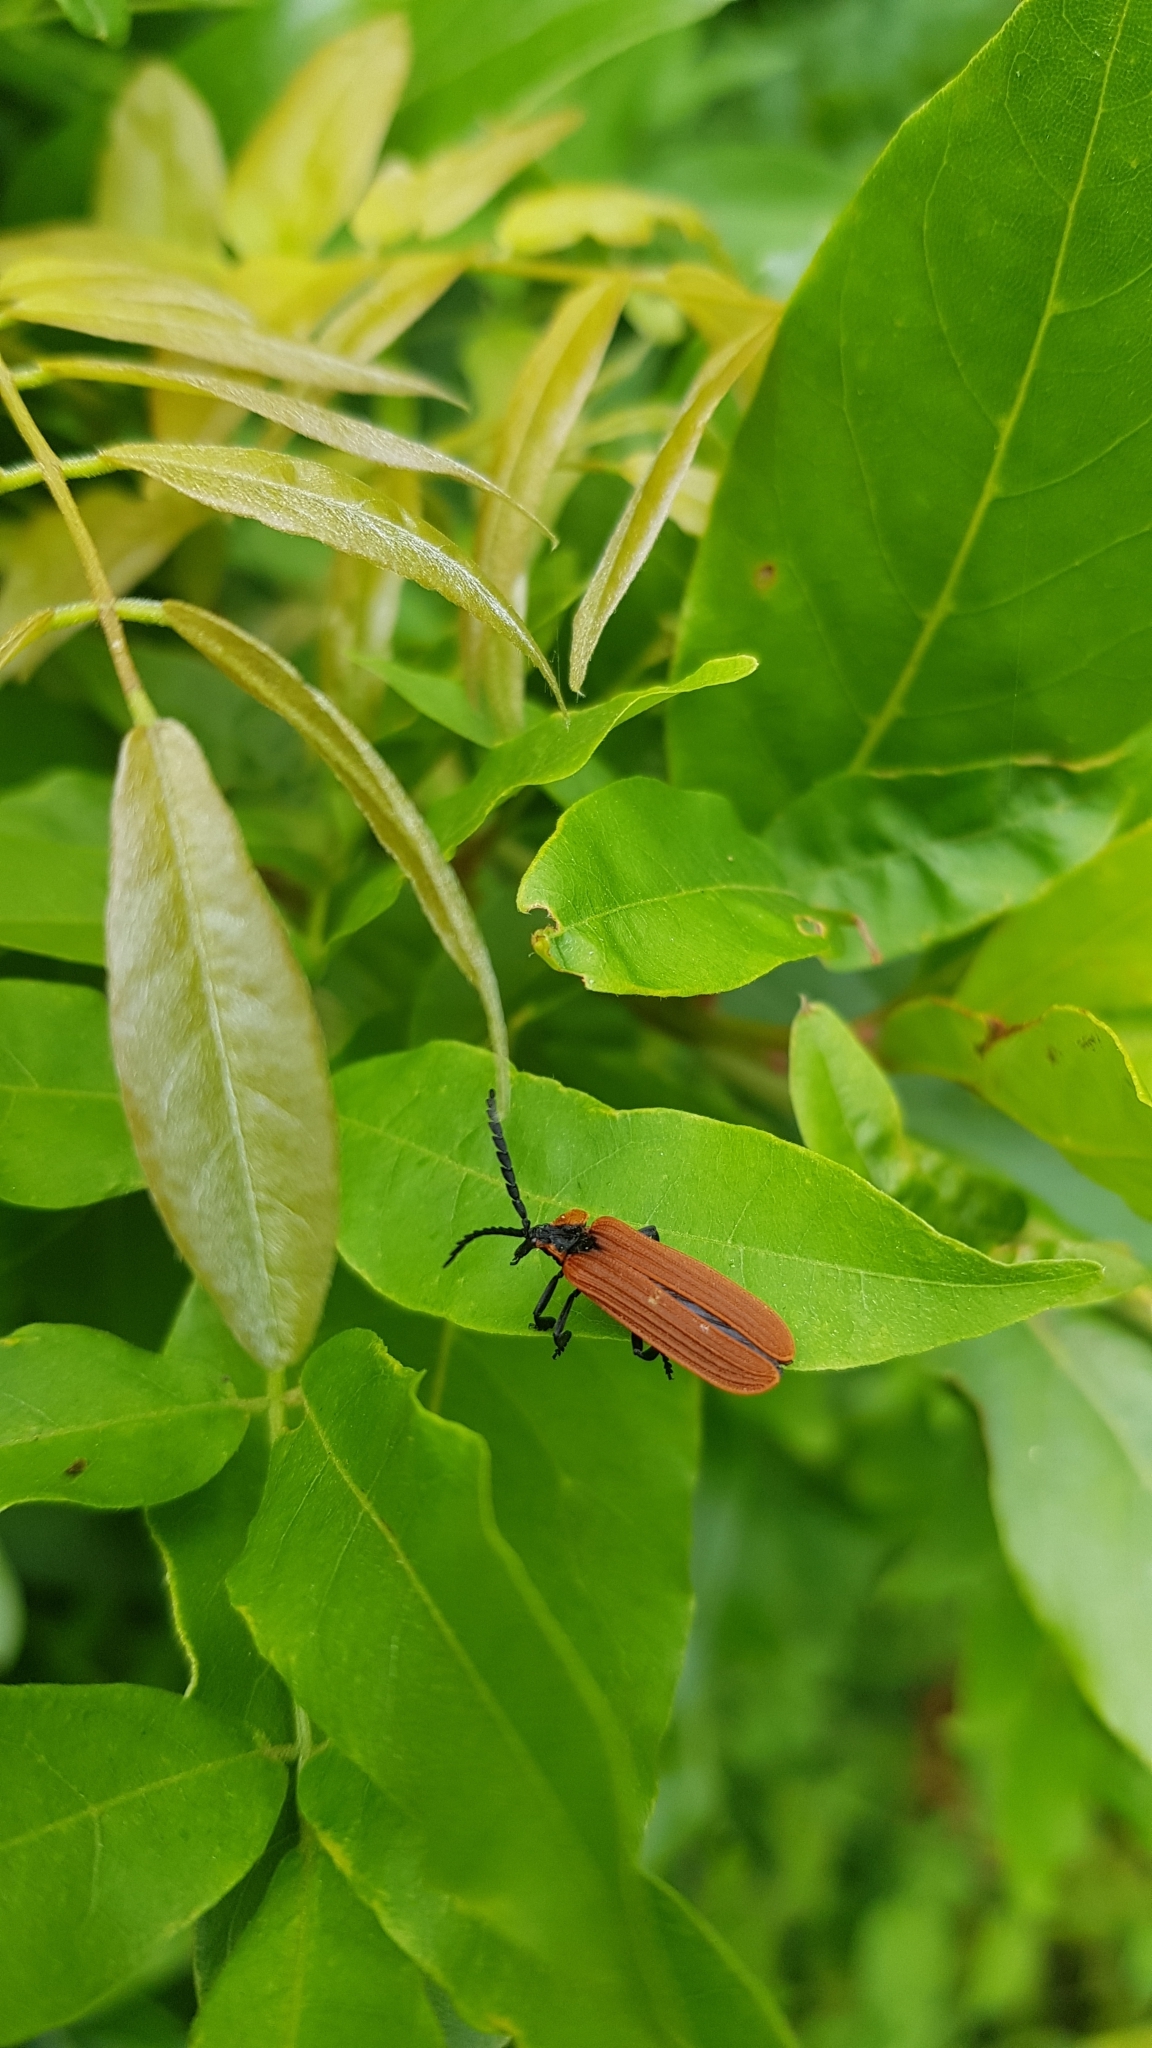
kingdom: Animalia
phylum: Arthropoda
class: Insecta
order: Coleoptera
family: Lycidae
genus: Porrostoma
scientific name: Porrostoma
